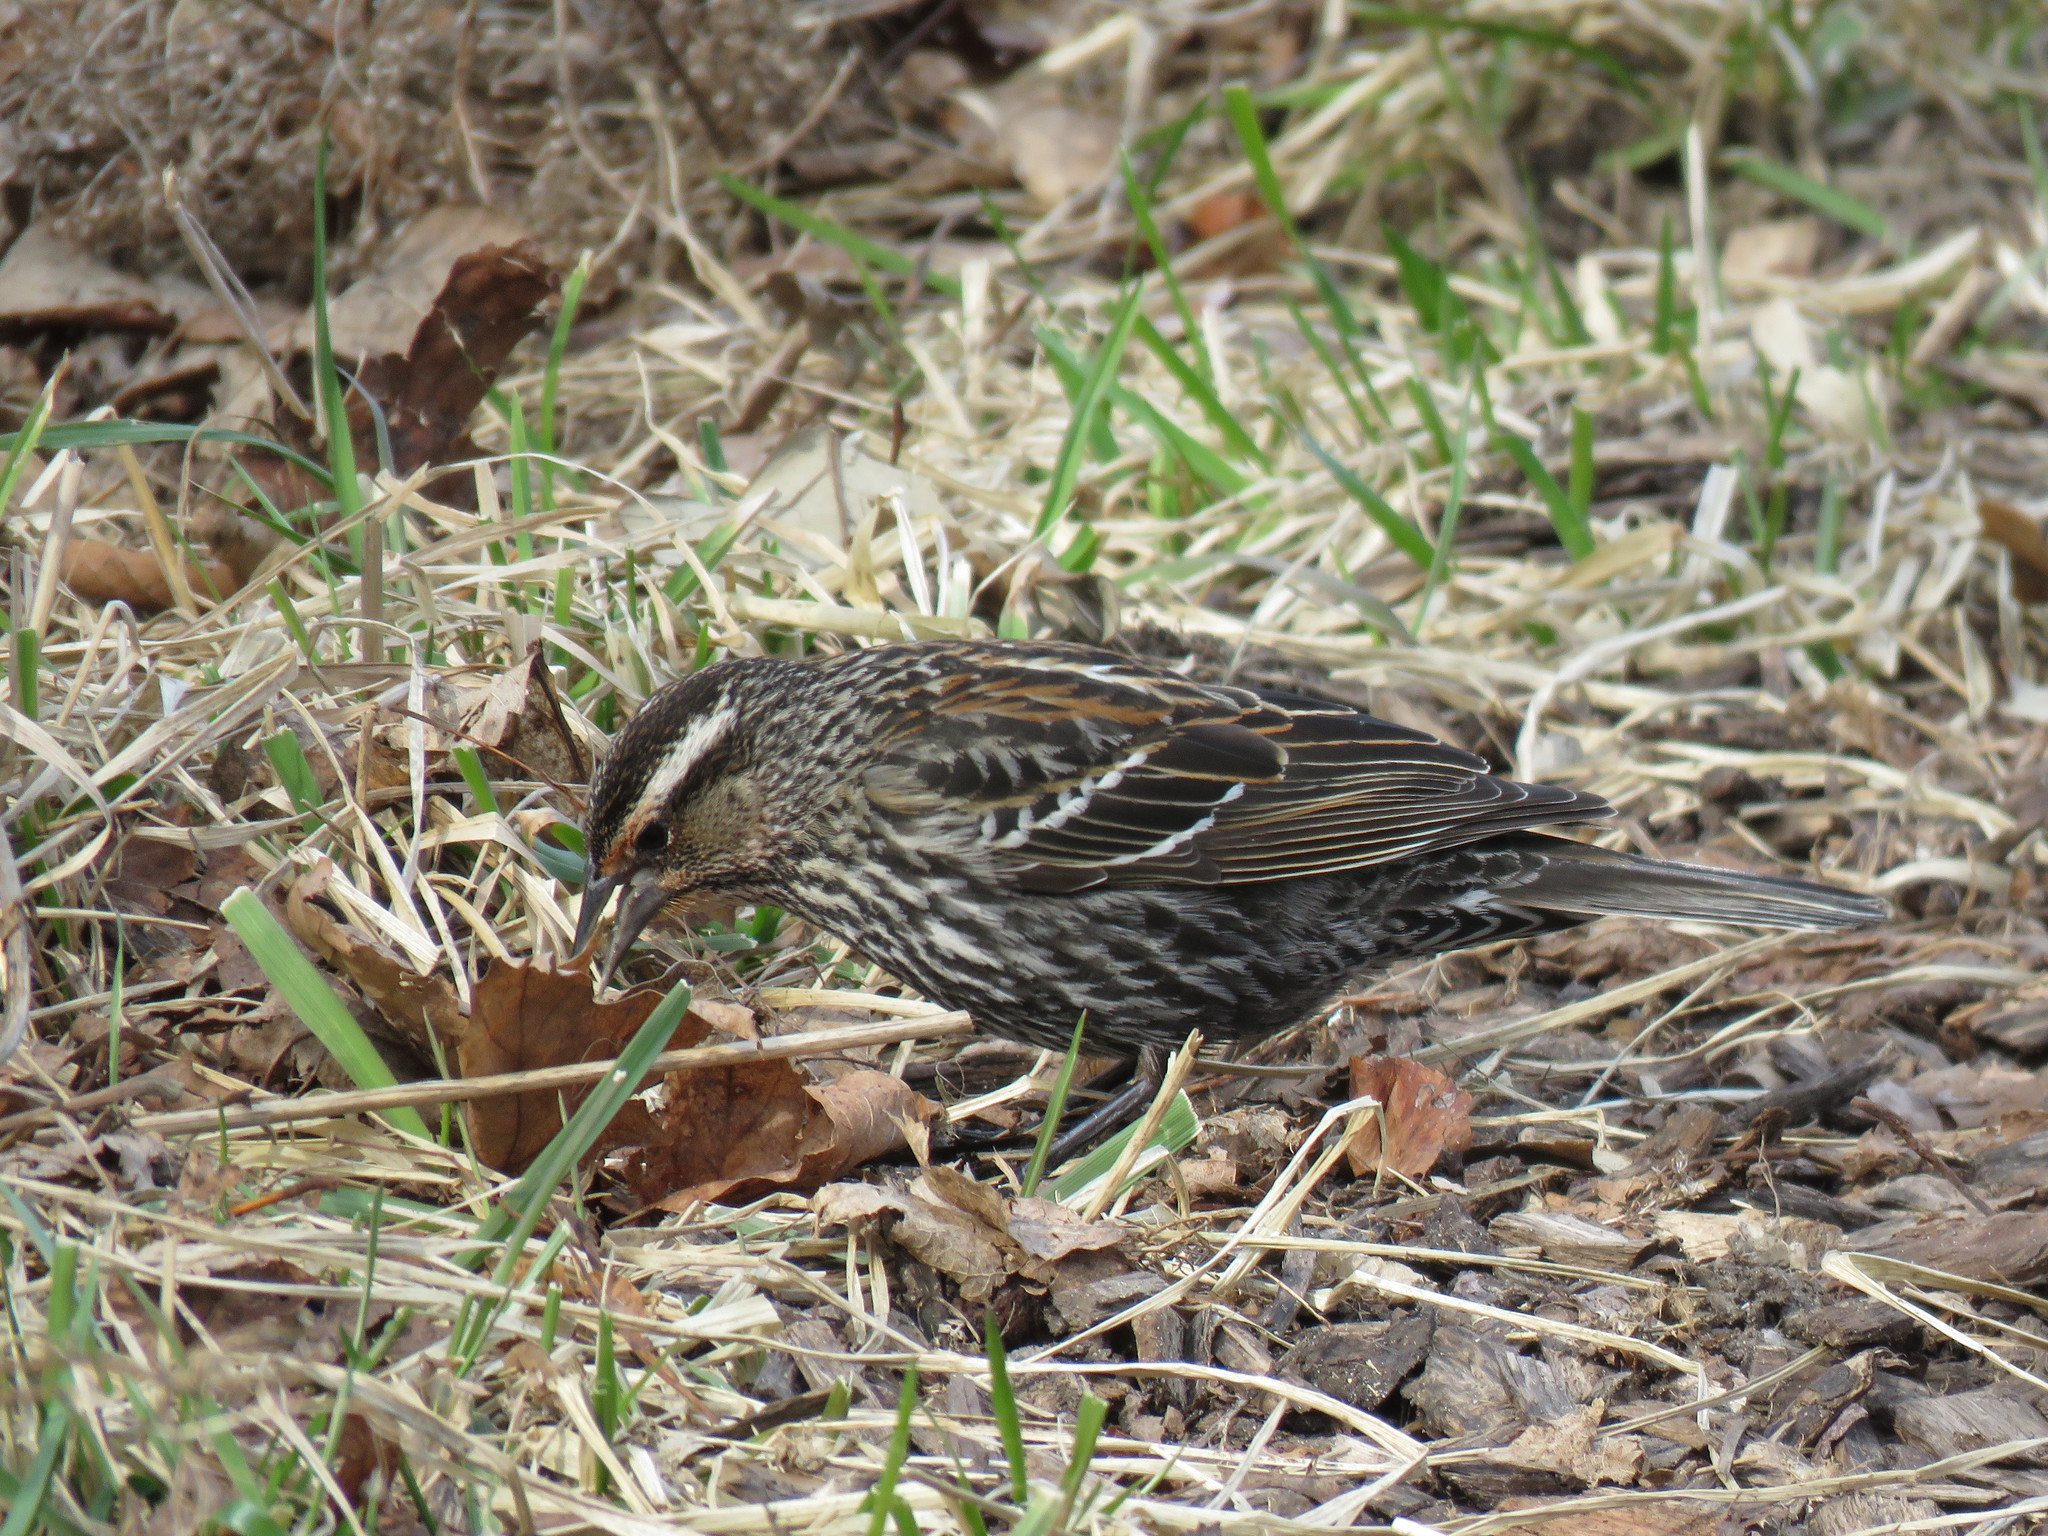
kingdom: Animalia
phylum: Chordata
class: Aves
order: Passeriformes
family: Icteridae
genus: Agelaius
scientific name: Agelaius phoeniceus
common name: Red-winged blackbird
